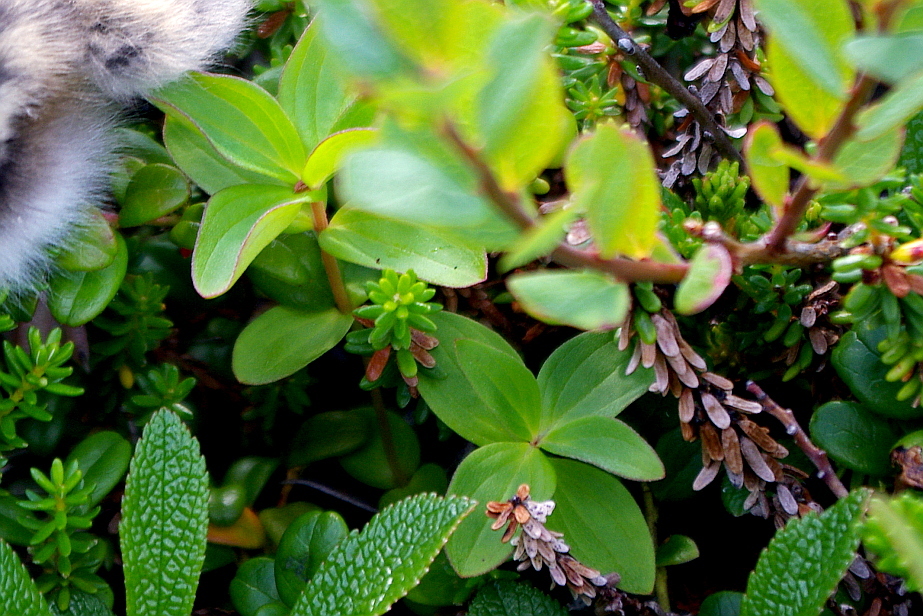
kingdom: Plantae
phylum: Tracheophyta
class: Magnoliopsida
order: Cornales
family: Cornaceae
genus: Cornus
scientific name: Cornus suecica
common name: Dwarf cornel
